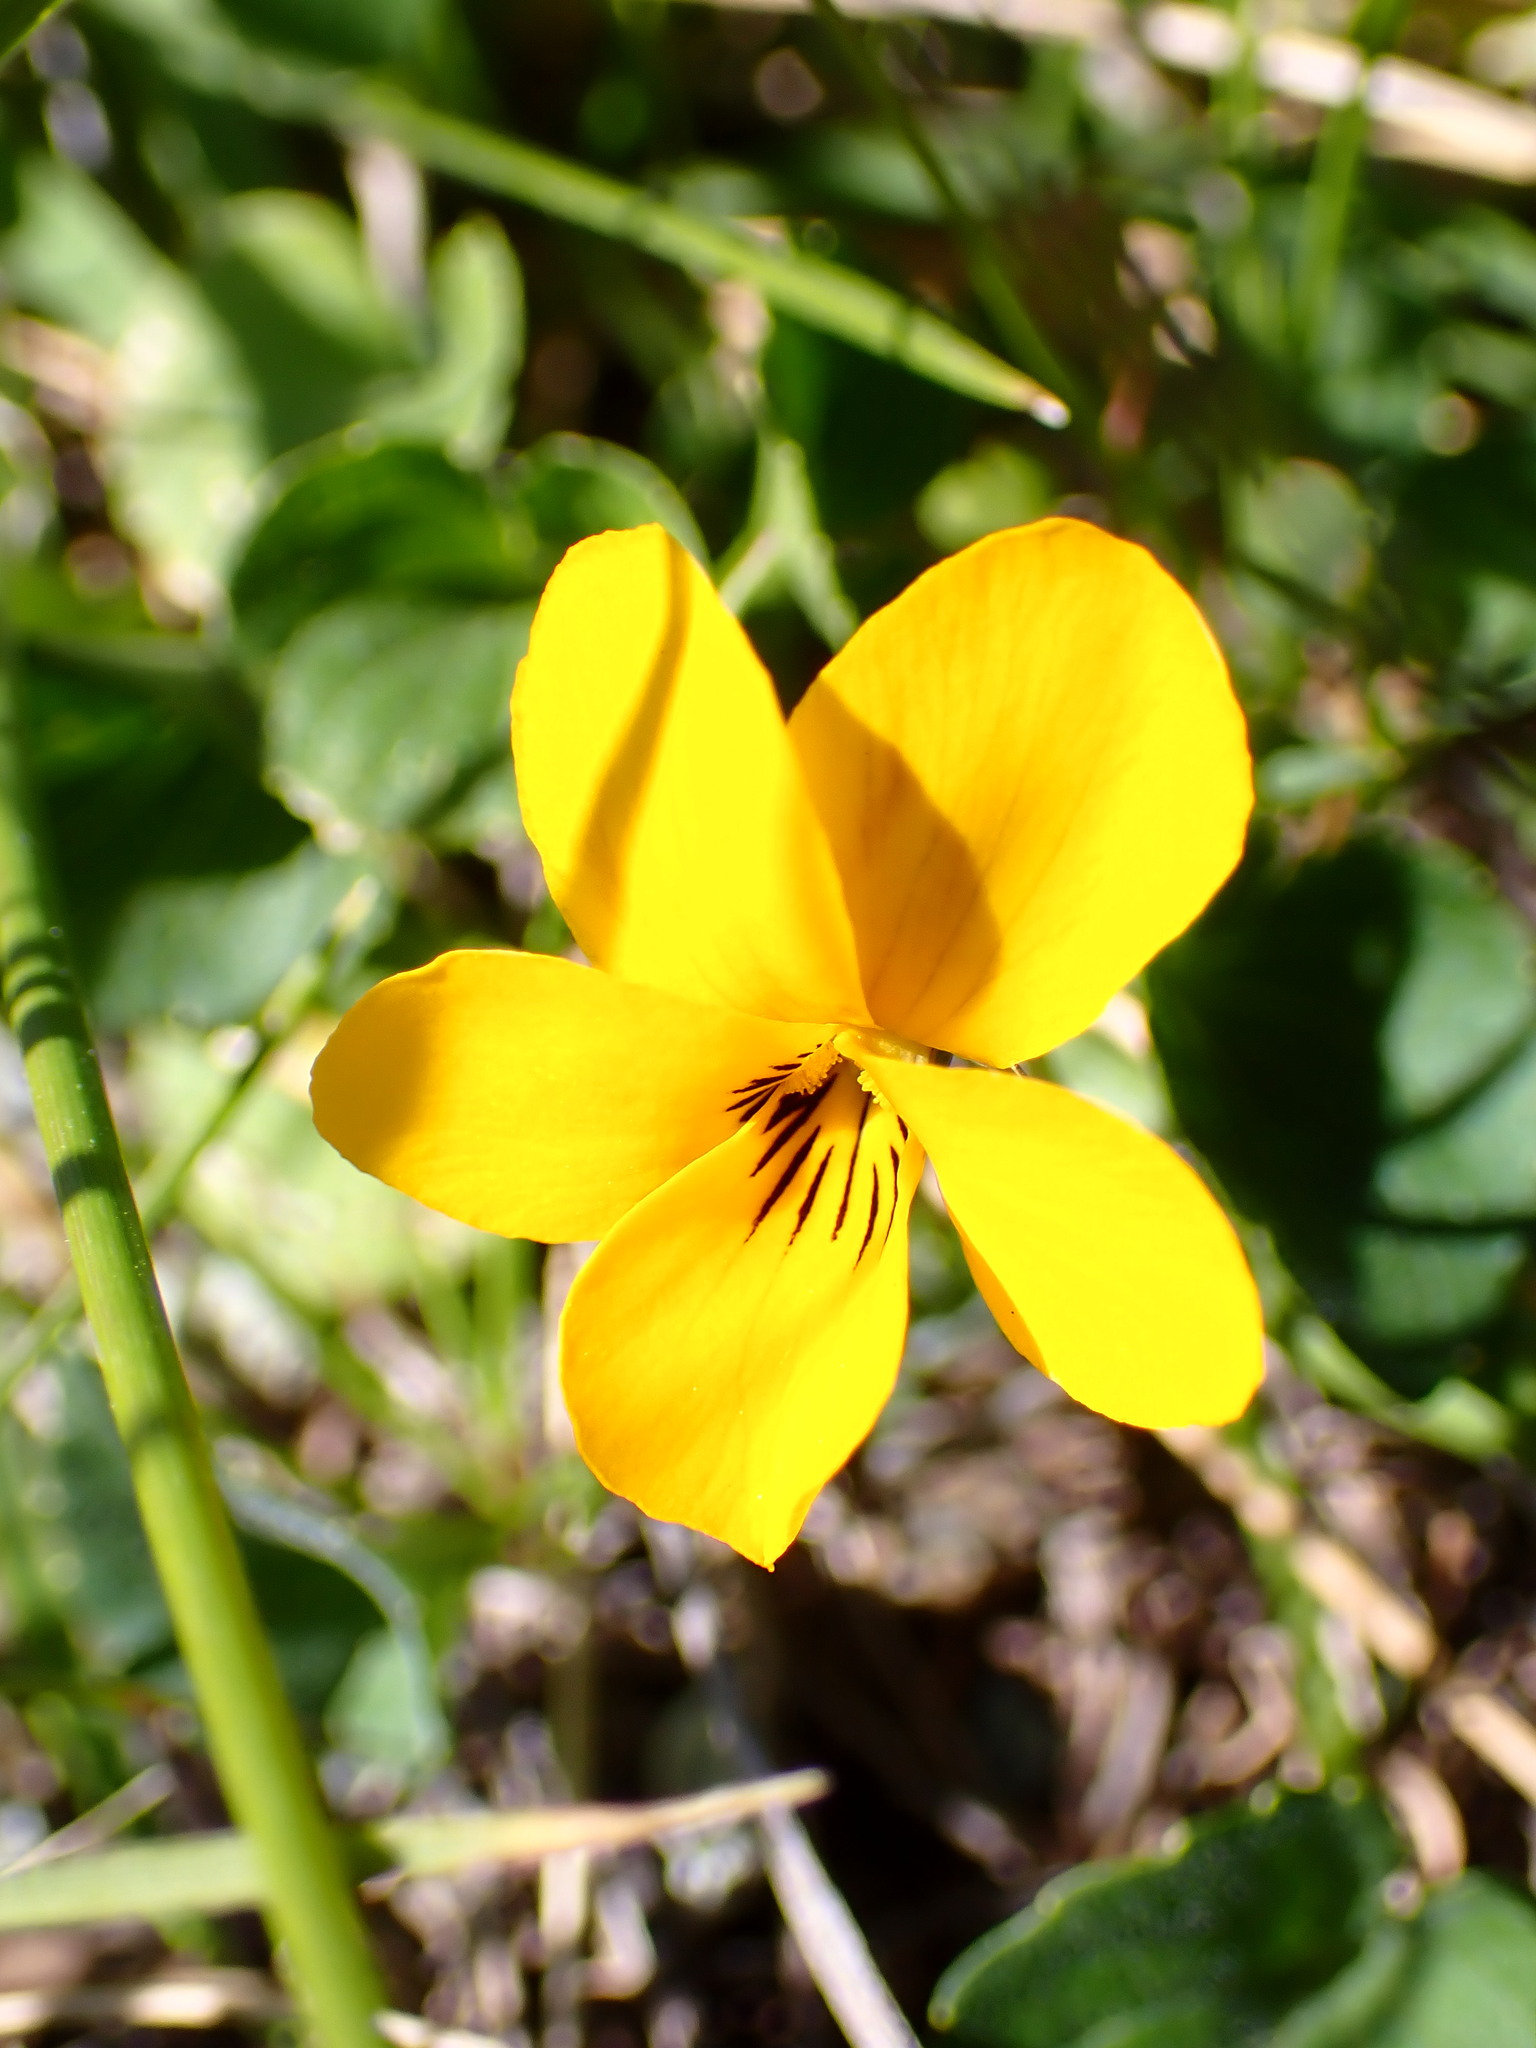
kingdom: Plantae
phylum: Tracheophyta
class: Magnoliopsida
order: Malpighiales
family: Violaceae
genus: Viola
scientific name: Viola pedunculata
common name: California golden violet
